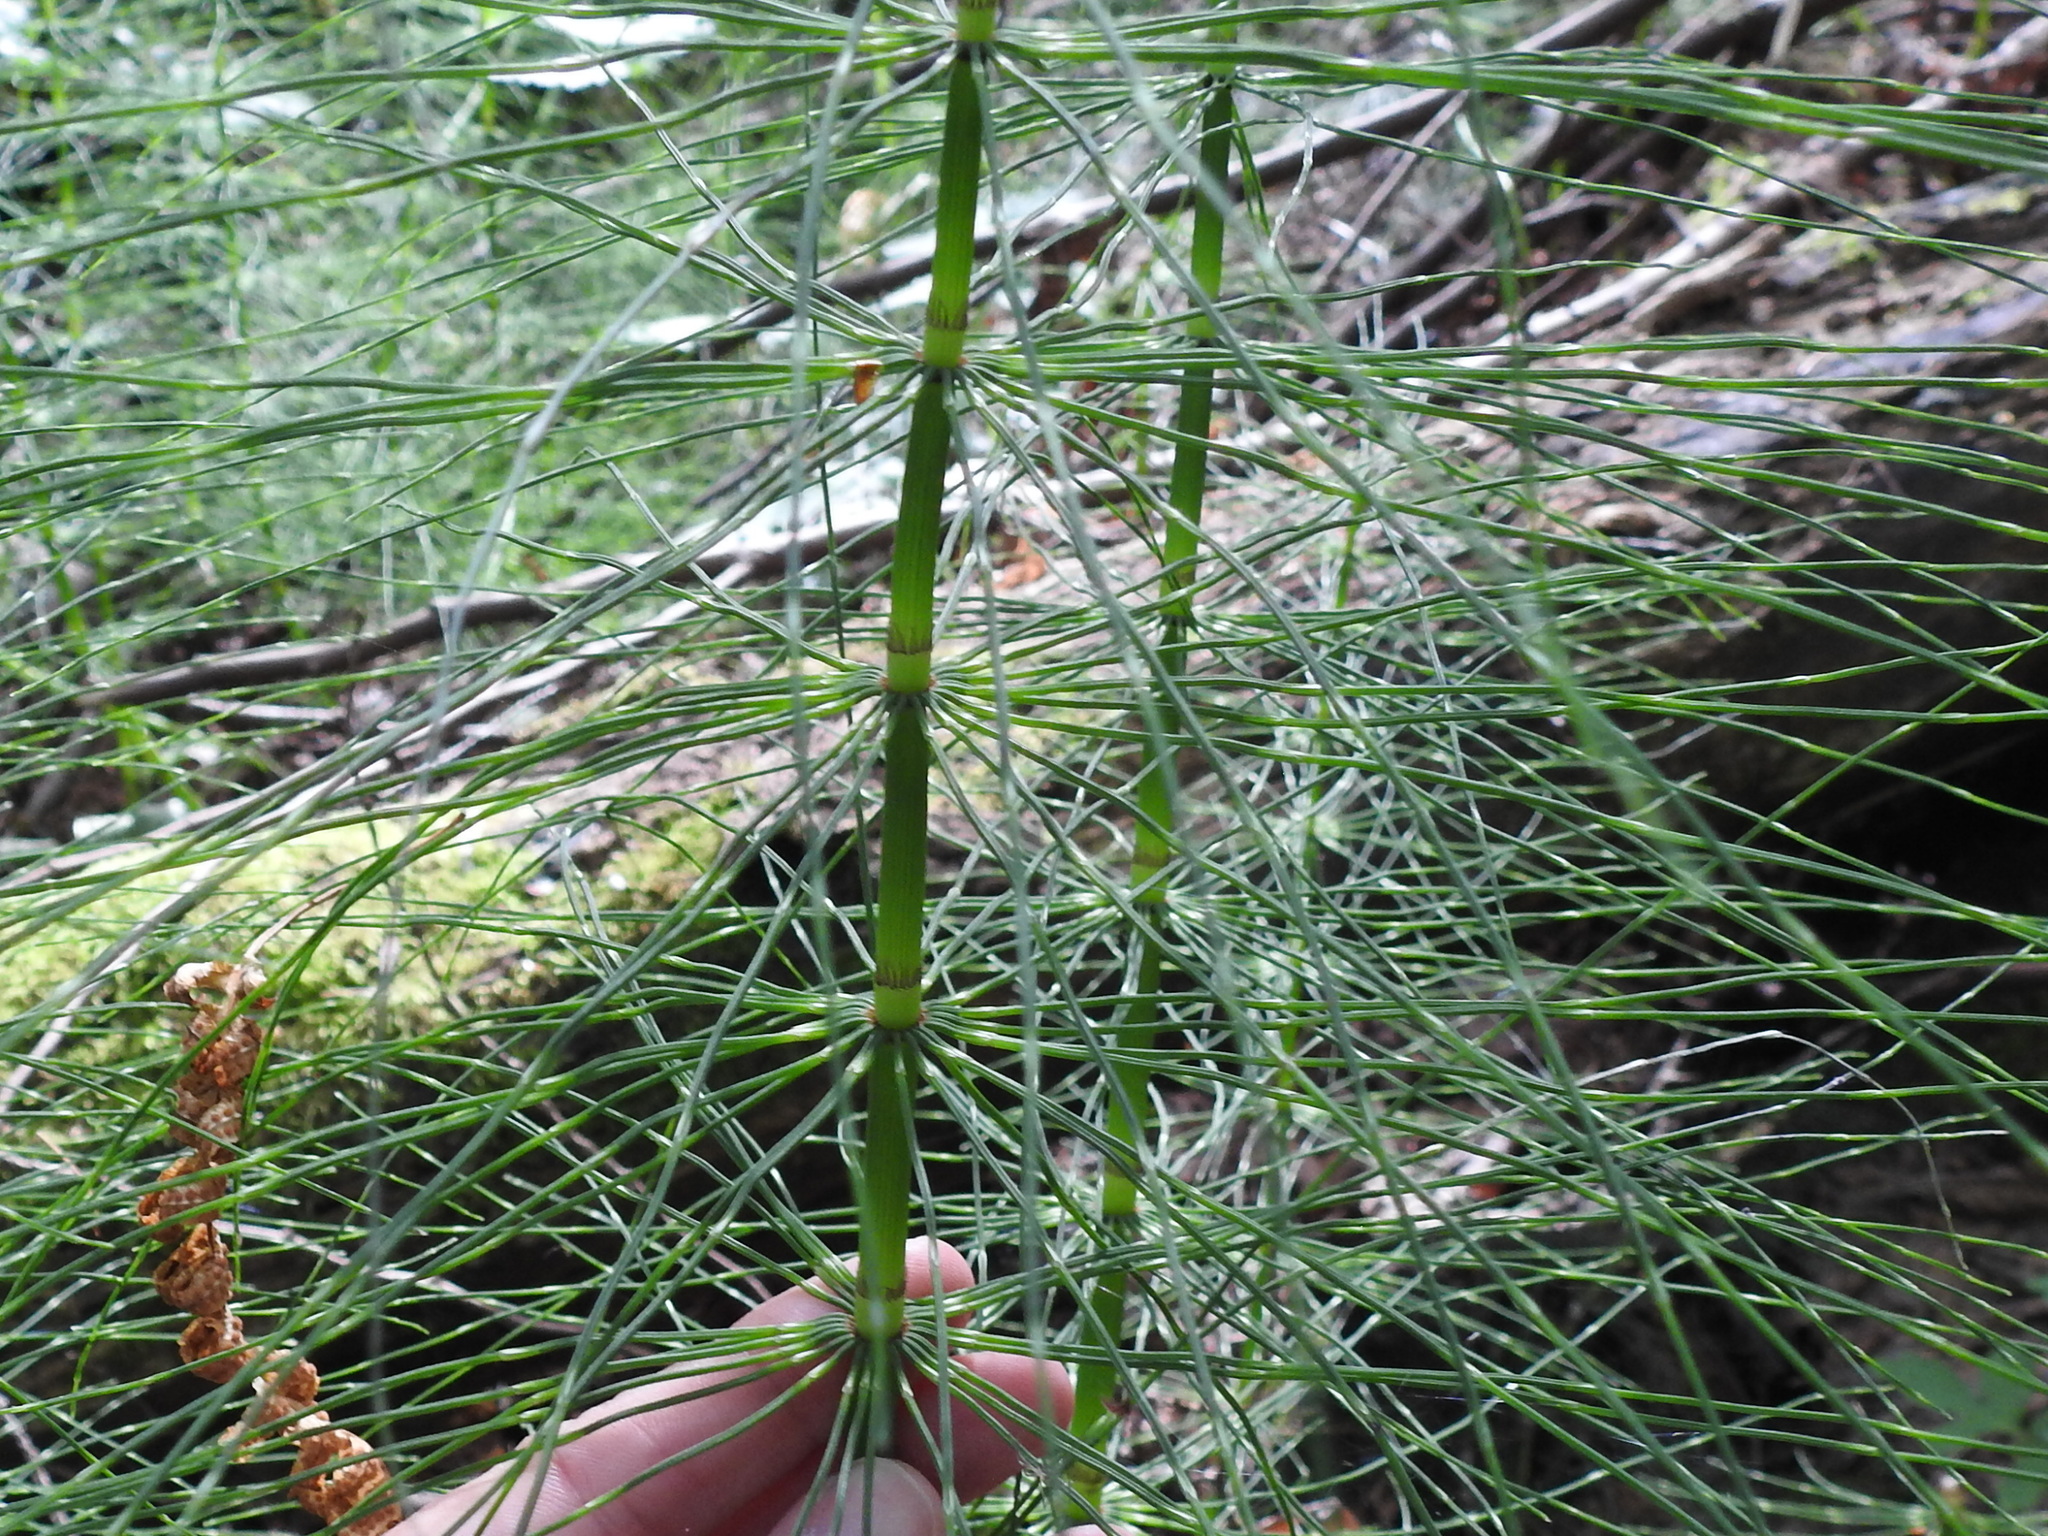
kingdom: Plantae
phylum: Tracheophyta
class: Polypodiopsida
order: Equisetales
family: Equisetaceae
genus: Equisetum
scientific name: Equisetum telmateia
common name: Great horsetail
